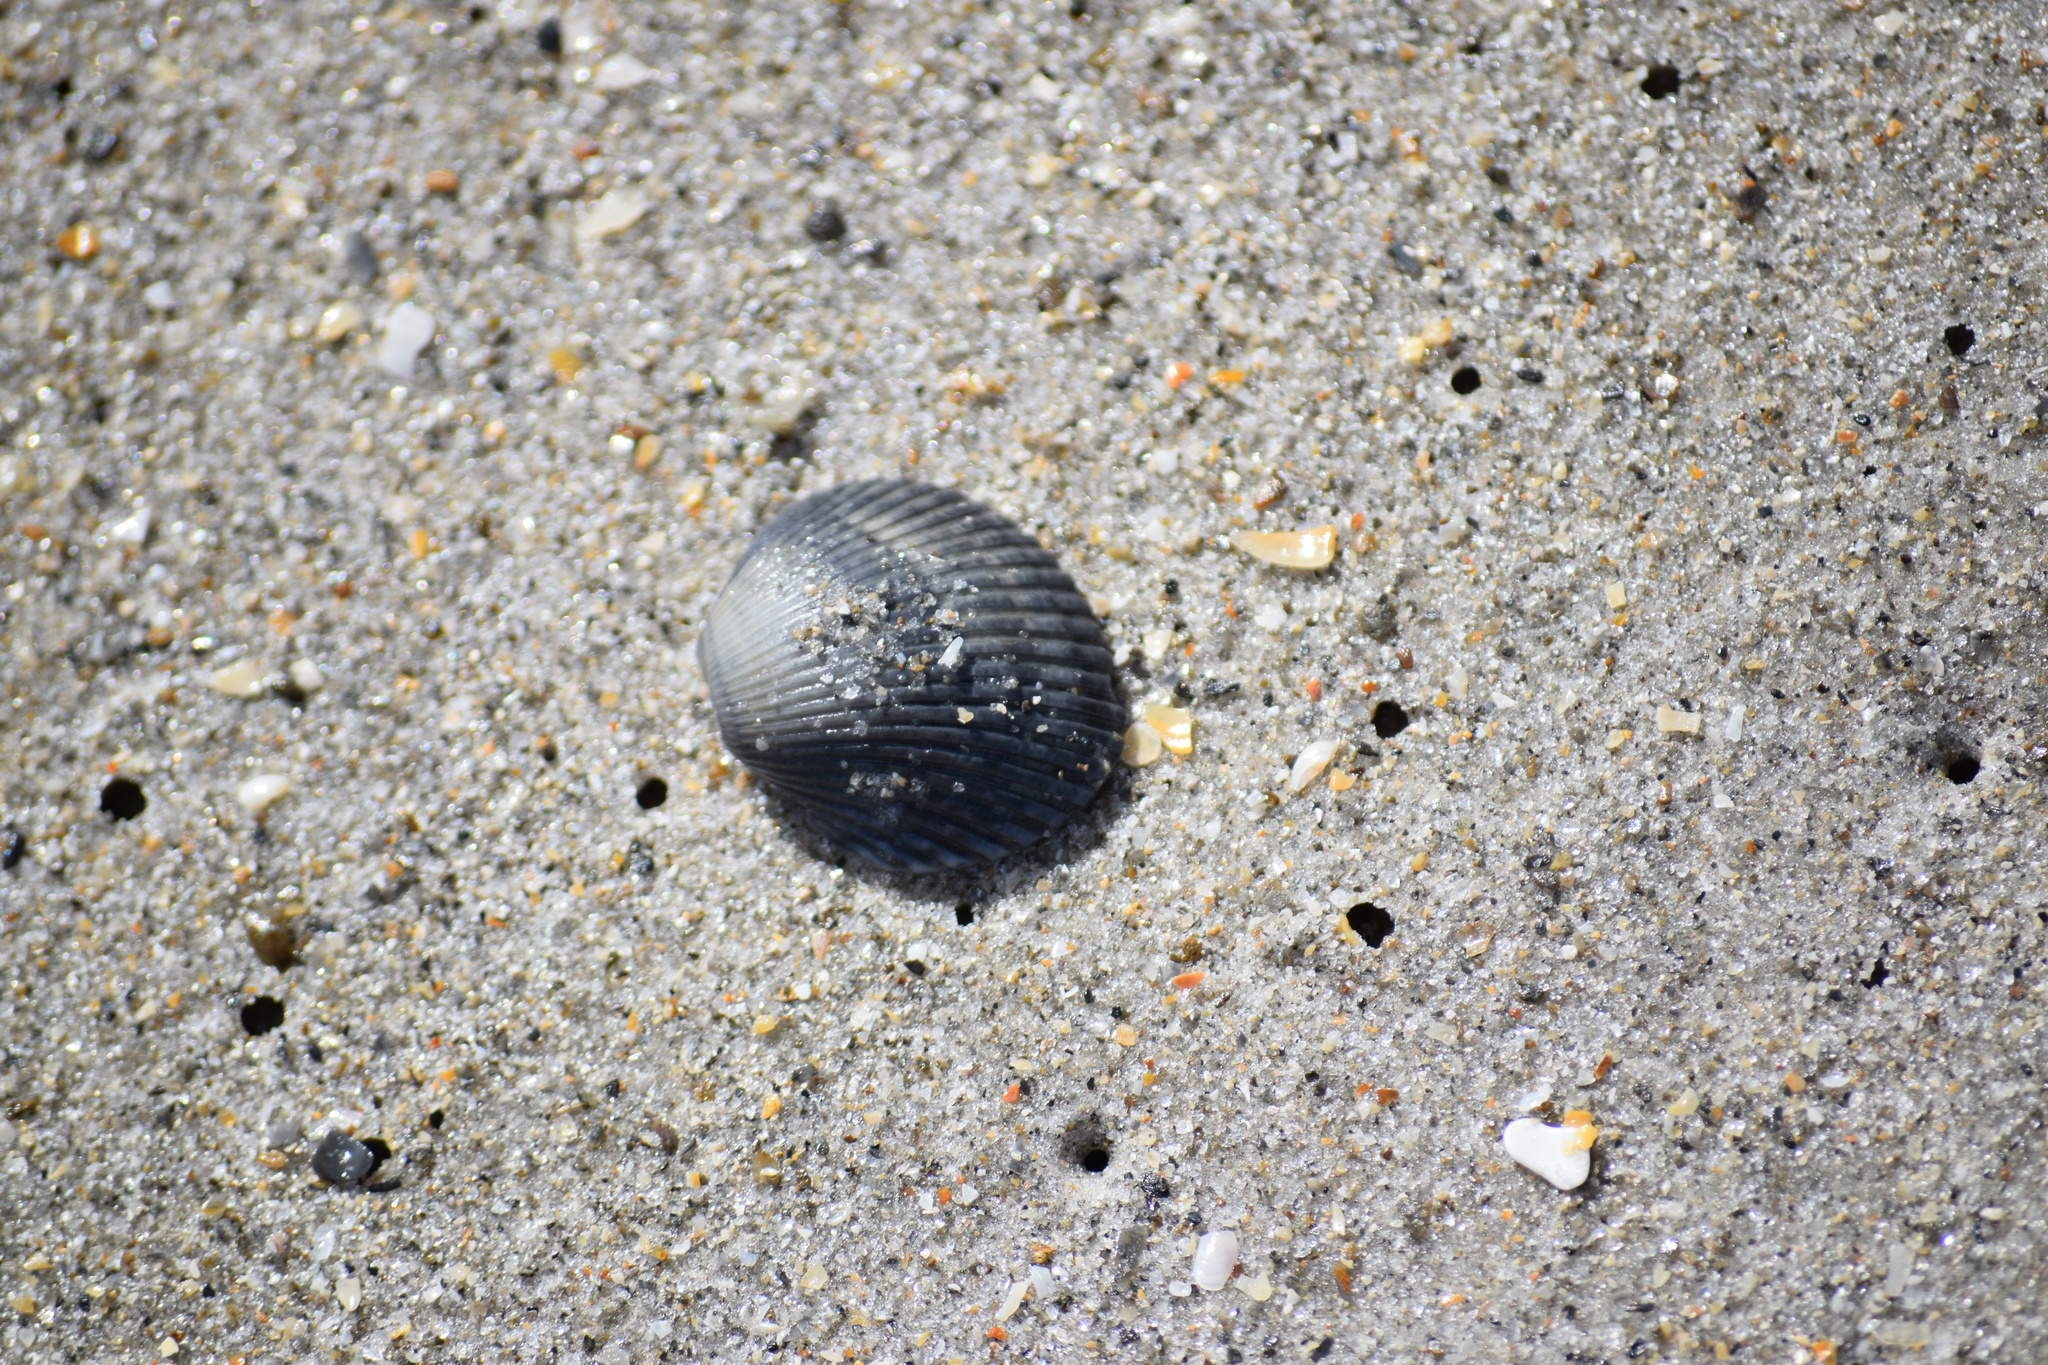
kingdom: Animalia
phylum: Mollusca
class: Bivalvia
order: Arcida
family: Arcidae
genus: Lunarca
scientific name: Lunarca ovalis
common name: Blood ark
